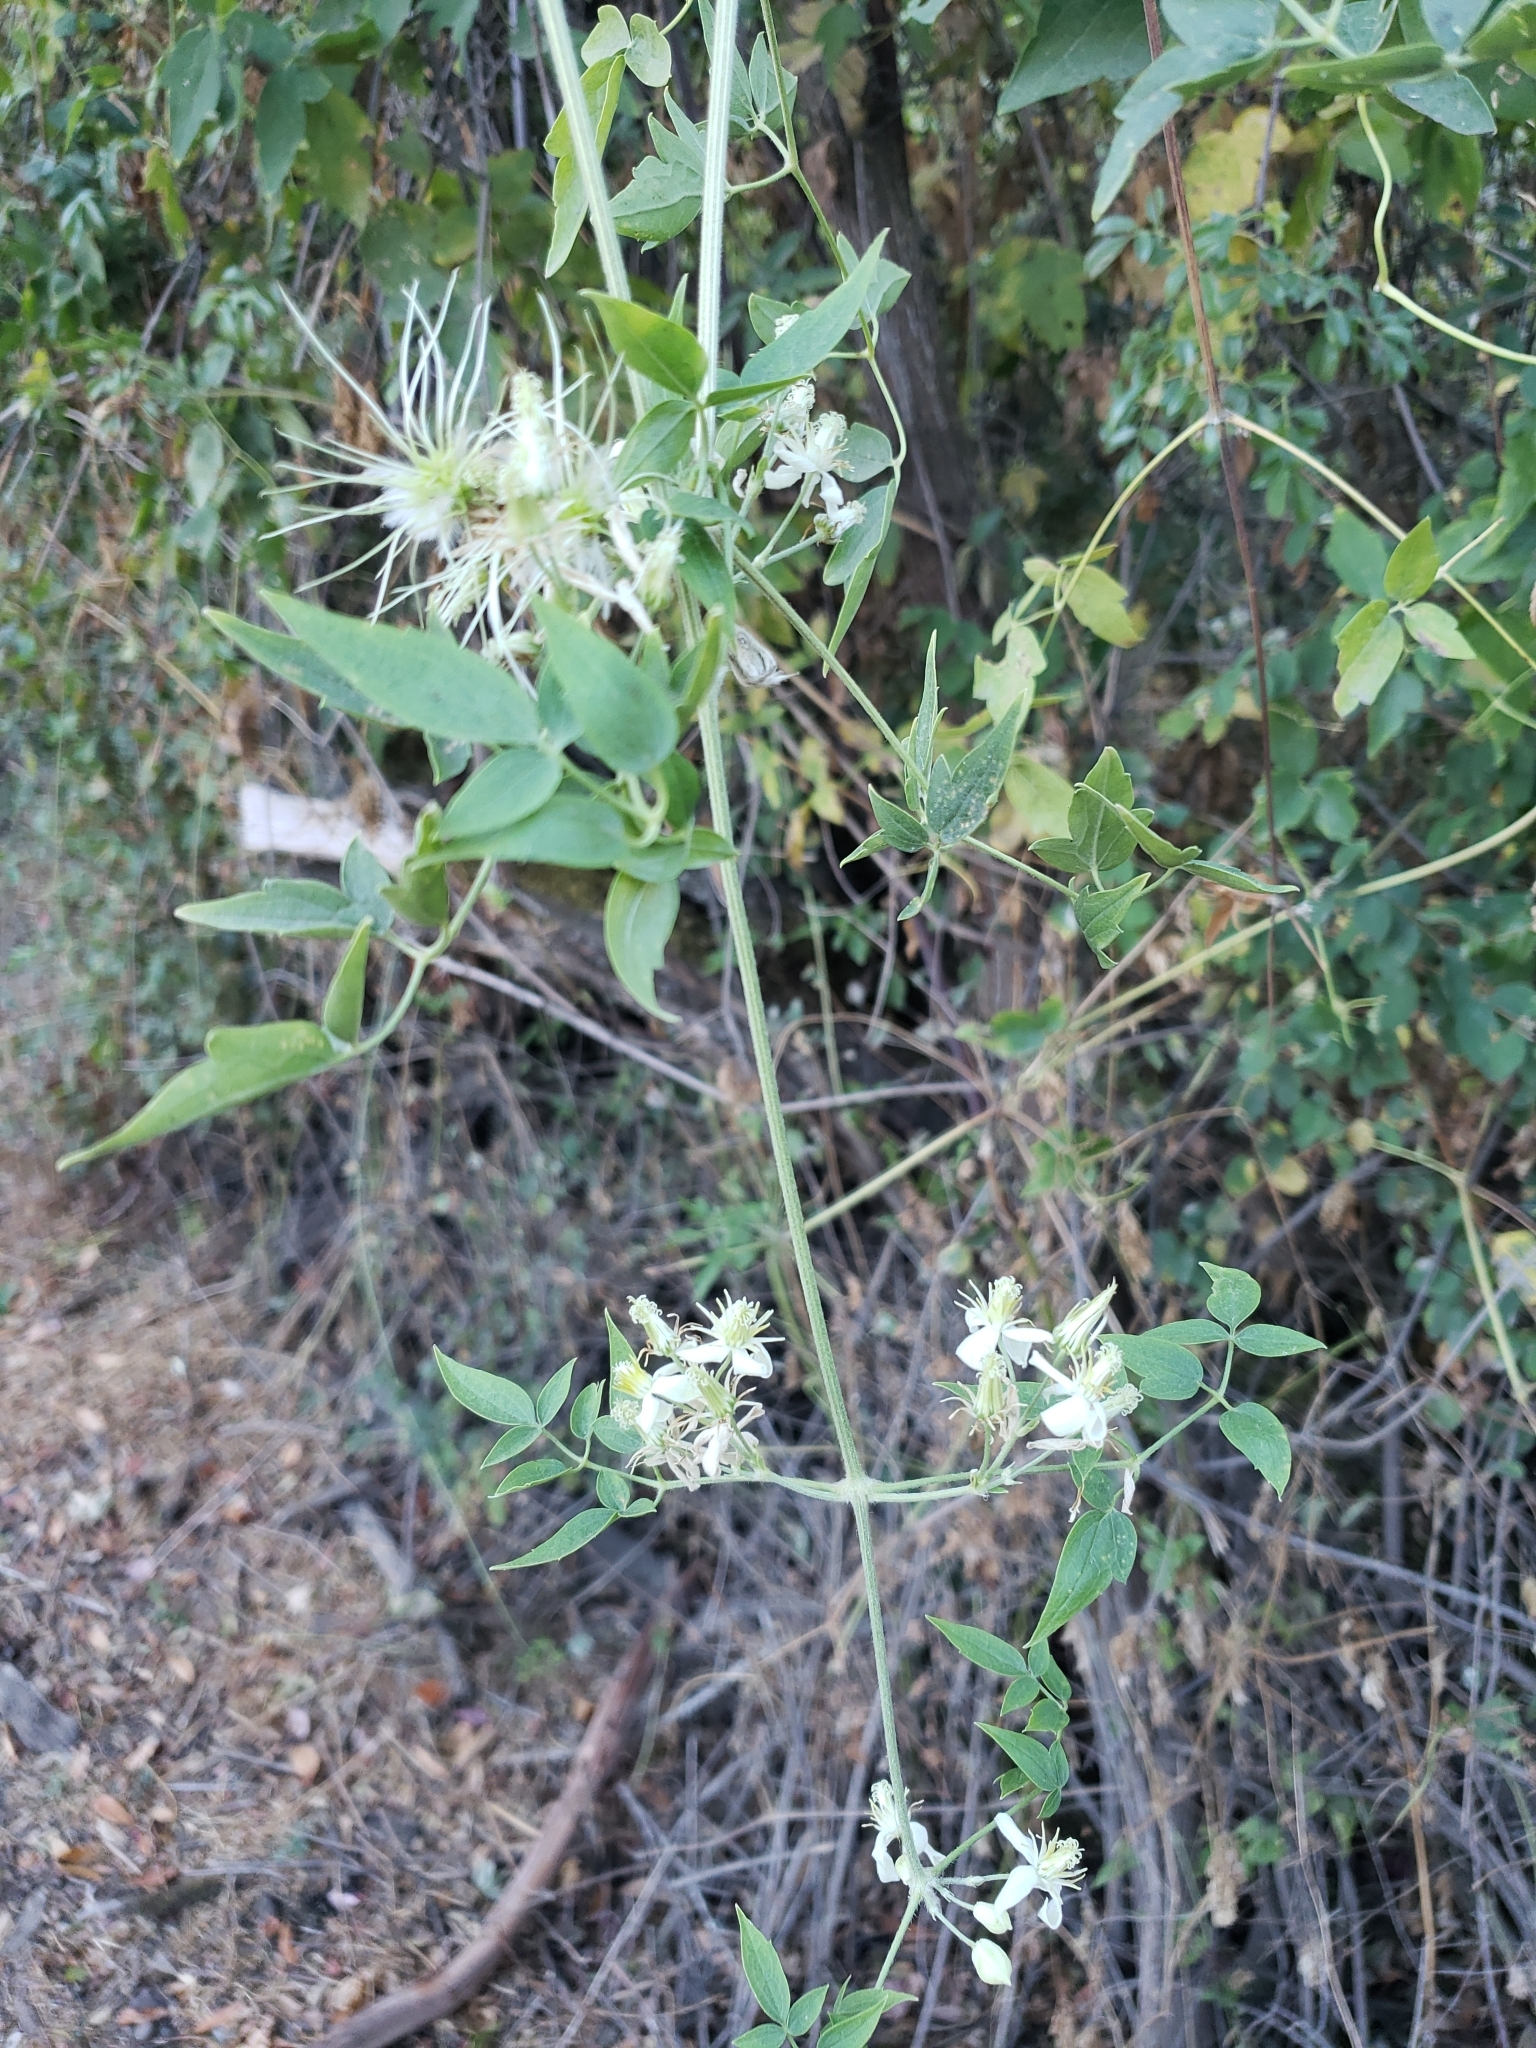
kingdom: Plantae
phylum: Tracheophyta
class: Magnoliopsida
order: Ranunculales
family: Ranunculaceae
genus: Clematis
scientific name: Clematis ligusticifolia
